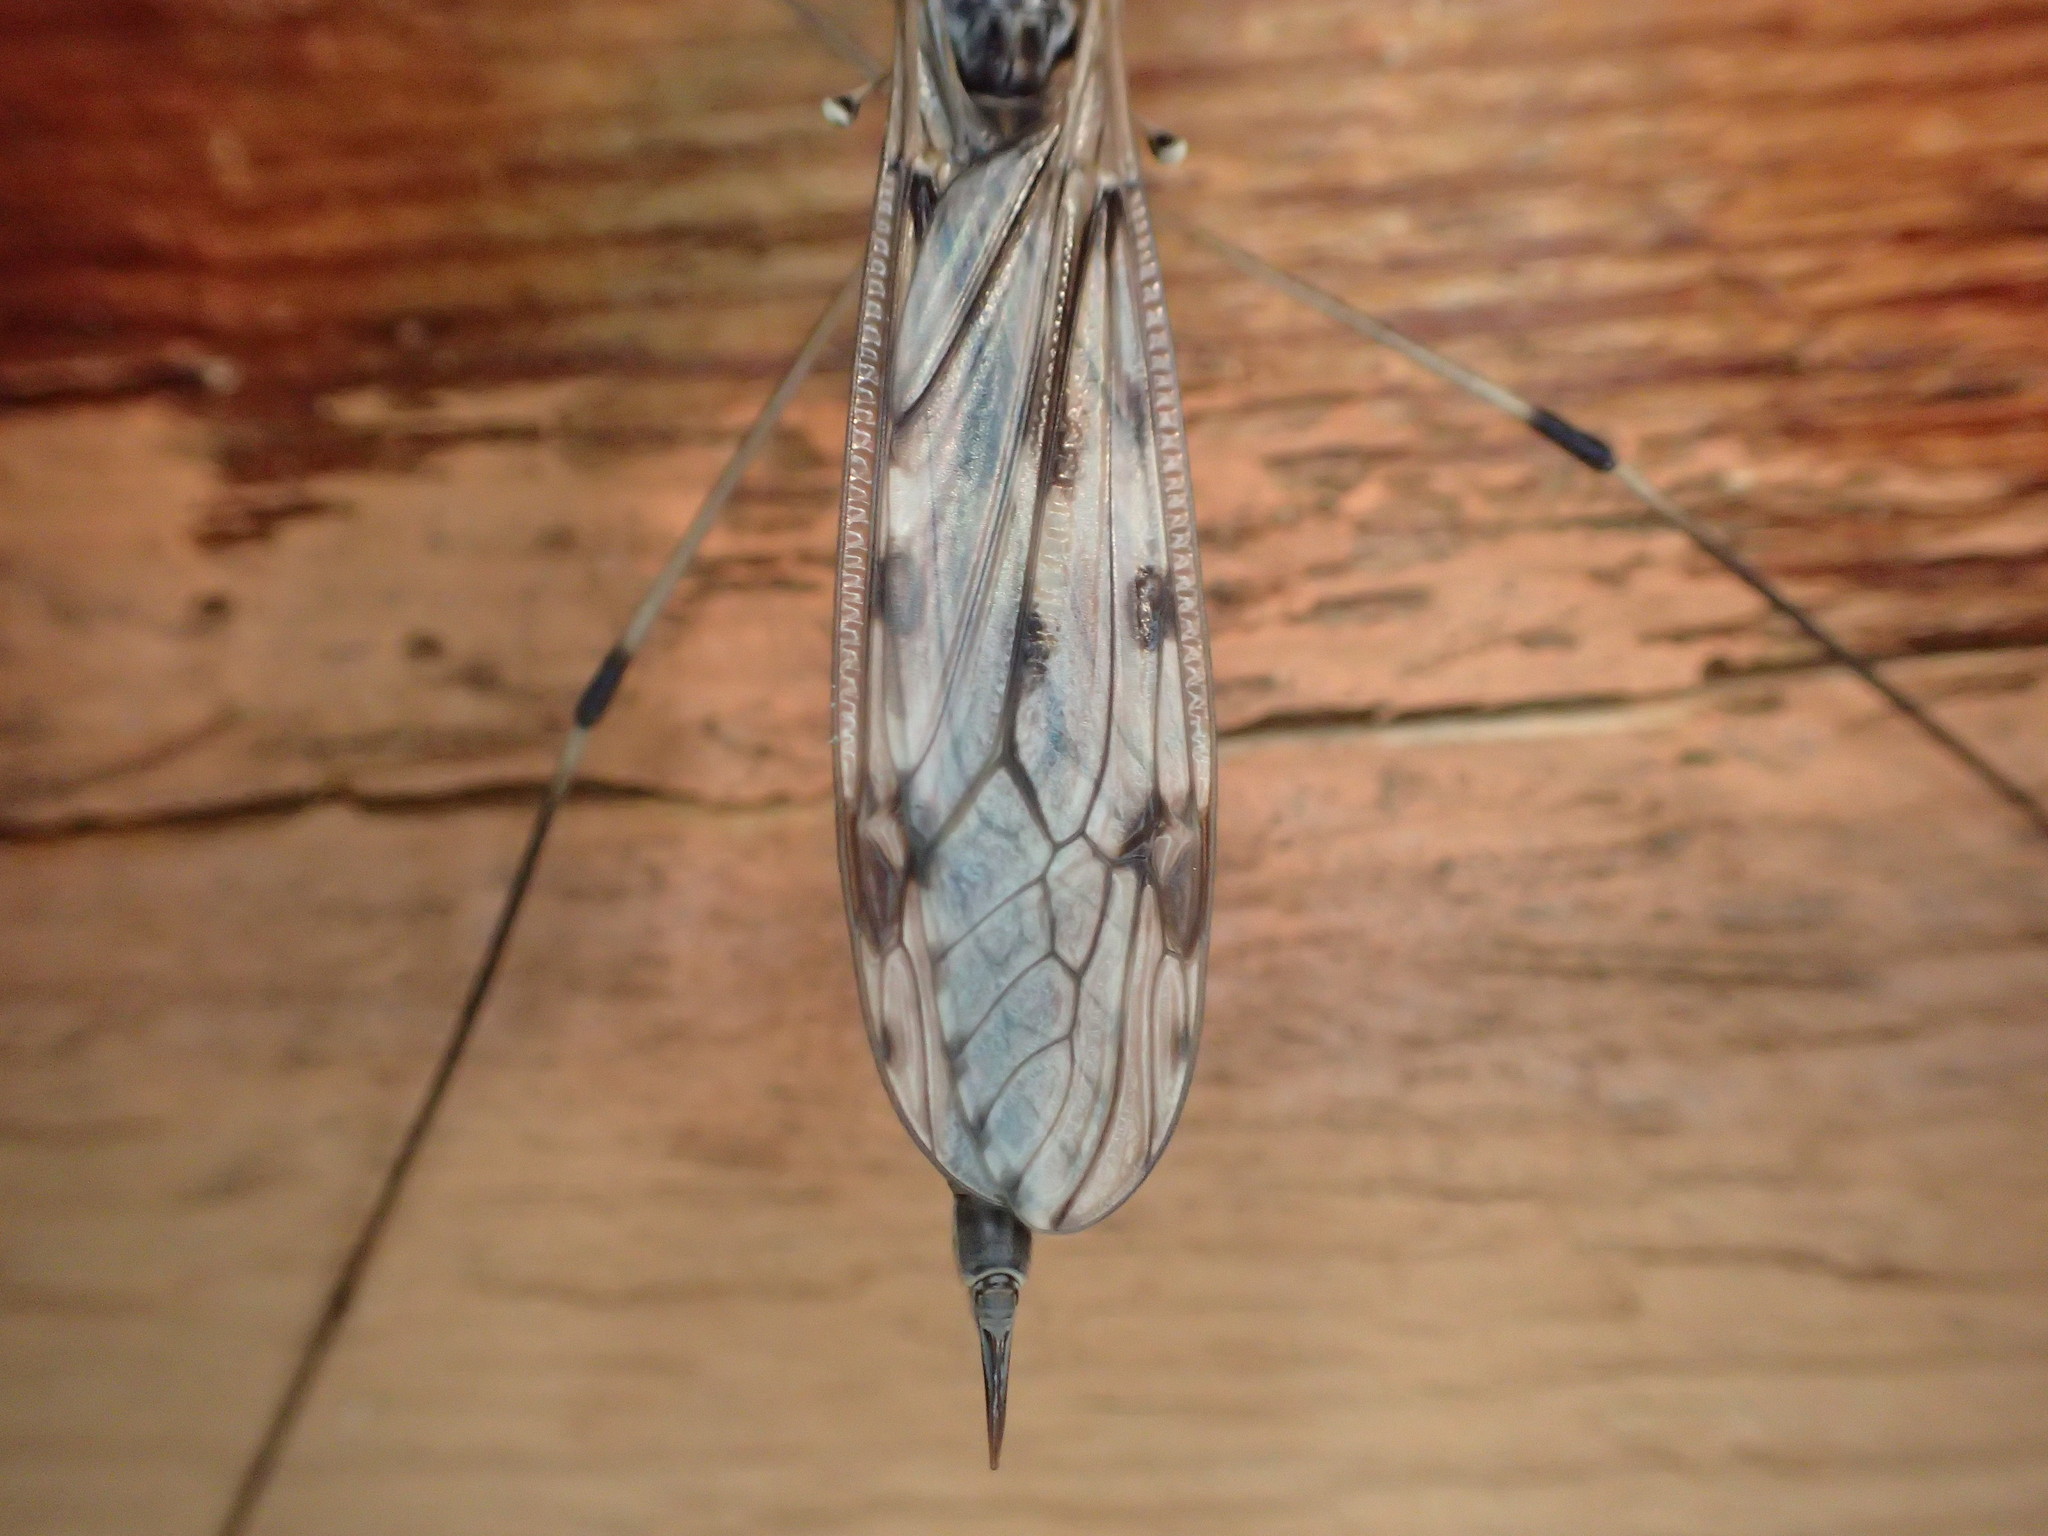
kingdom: Animalia
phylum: Arthropoda
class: Insecta
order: Diptera
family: Tipulidae
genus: Tipula
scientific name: Tipula abdominalis
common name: Giant crane fly
